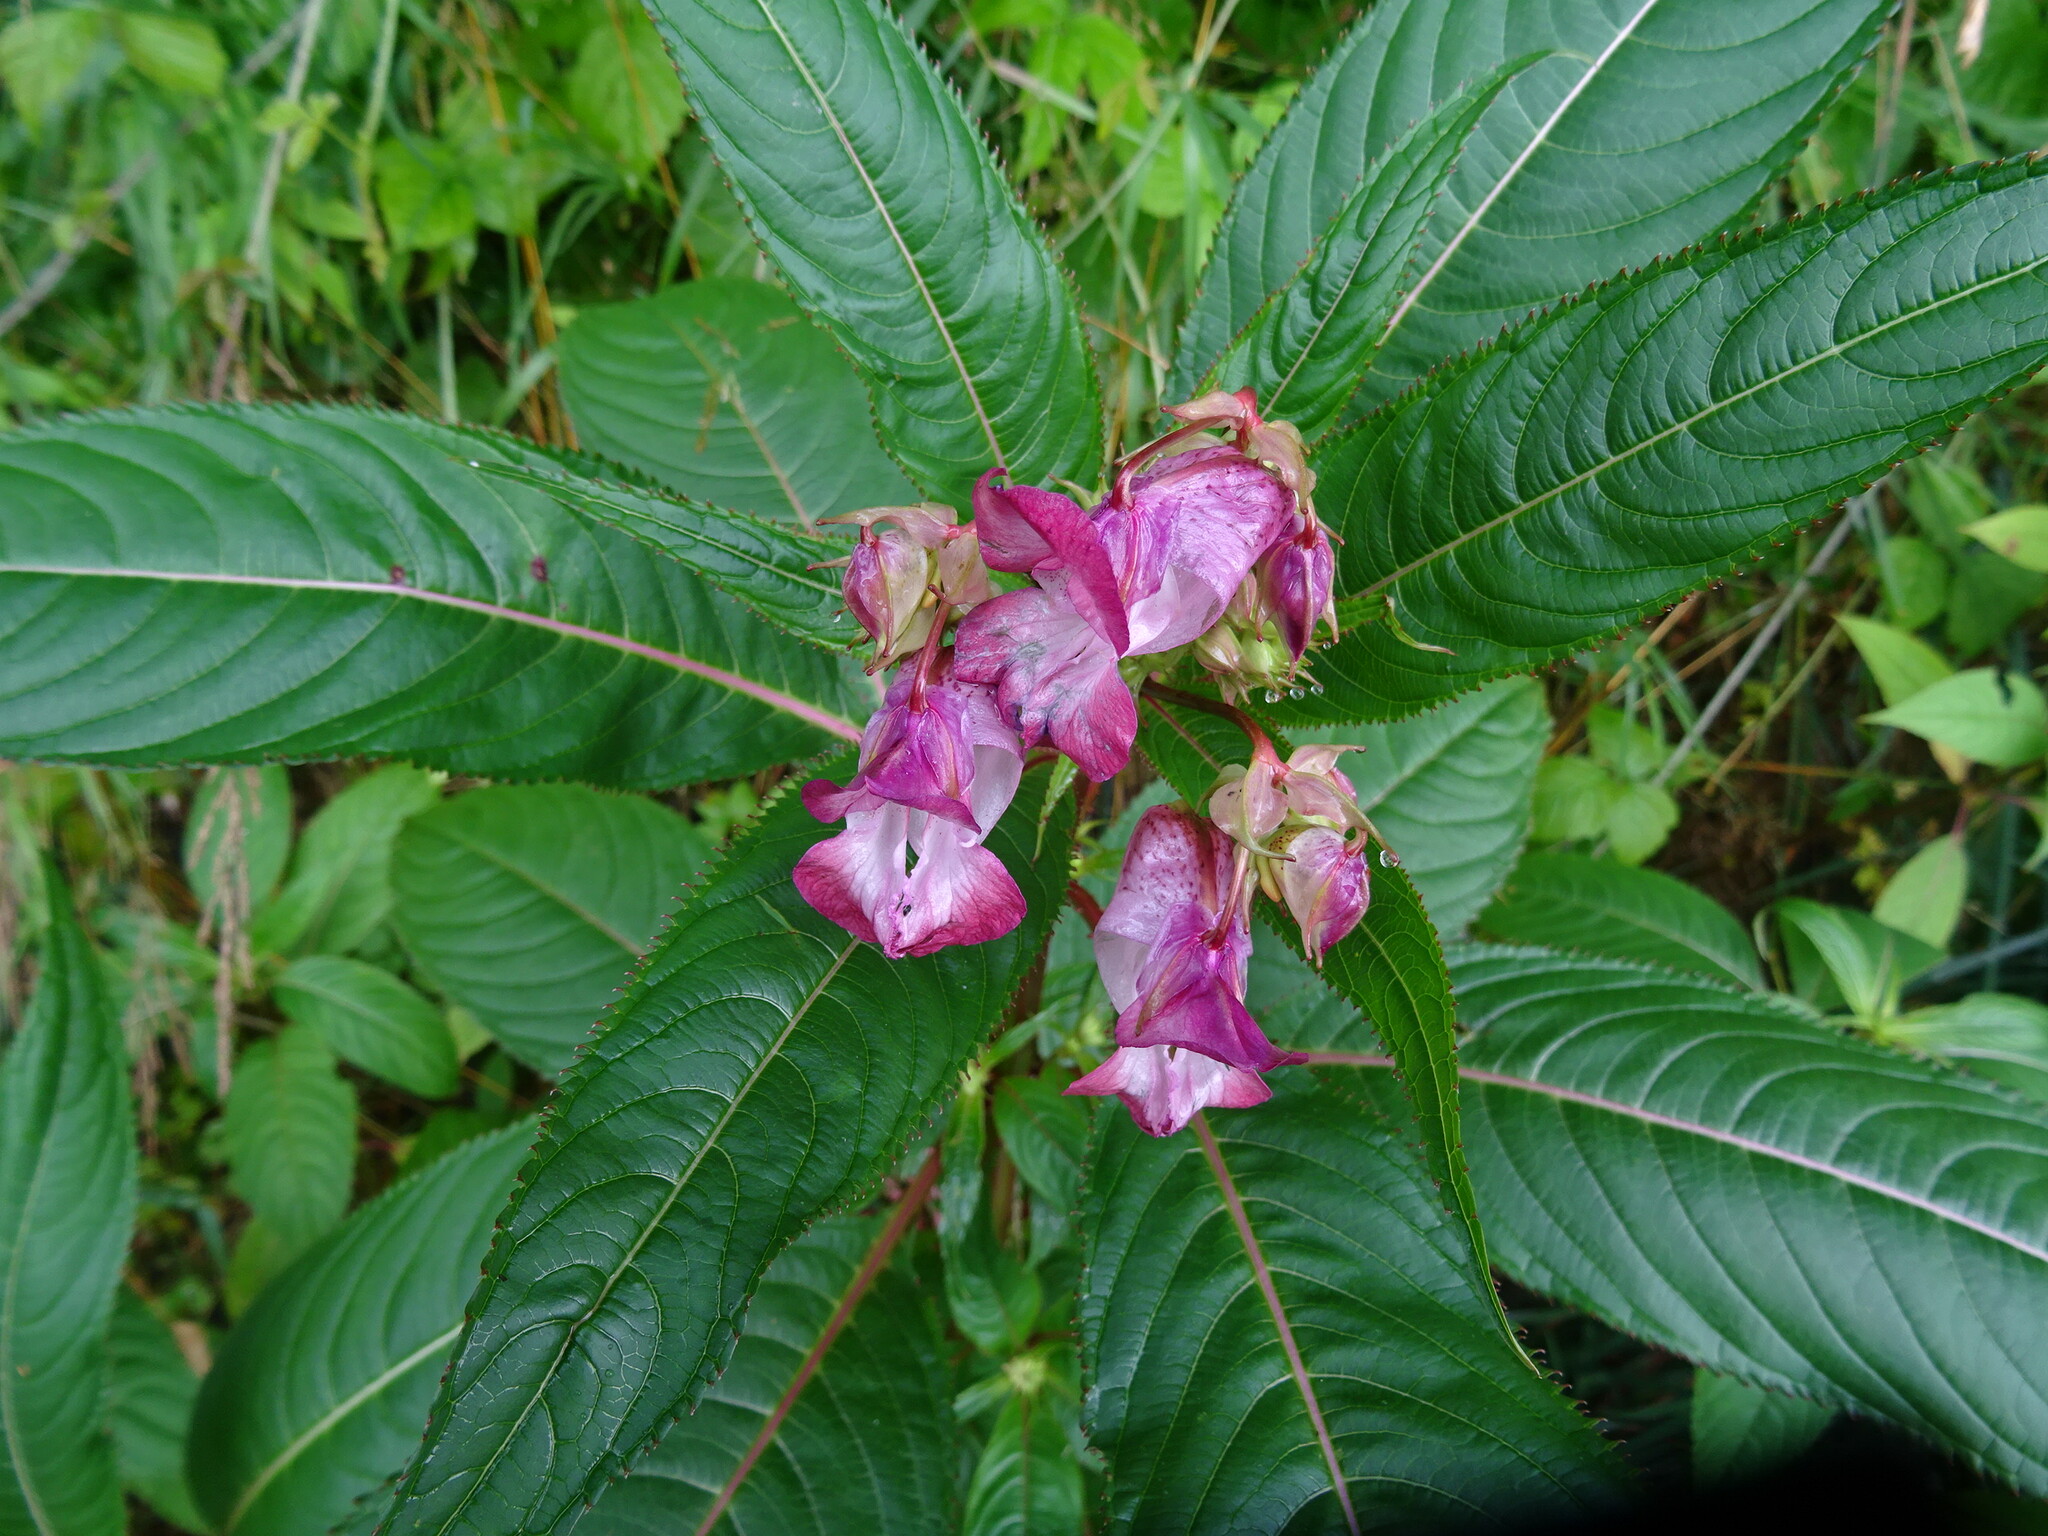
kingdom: Plantae
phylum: Tracheophyta
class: Magnoliopsida
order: Ericales
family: Balsaminaceae
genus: Impatiens
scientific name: Impatiens glandulifera
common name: Himalayan balsam
